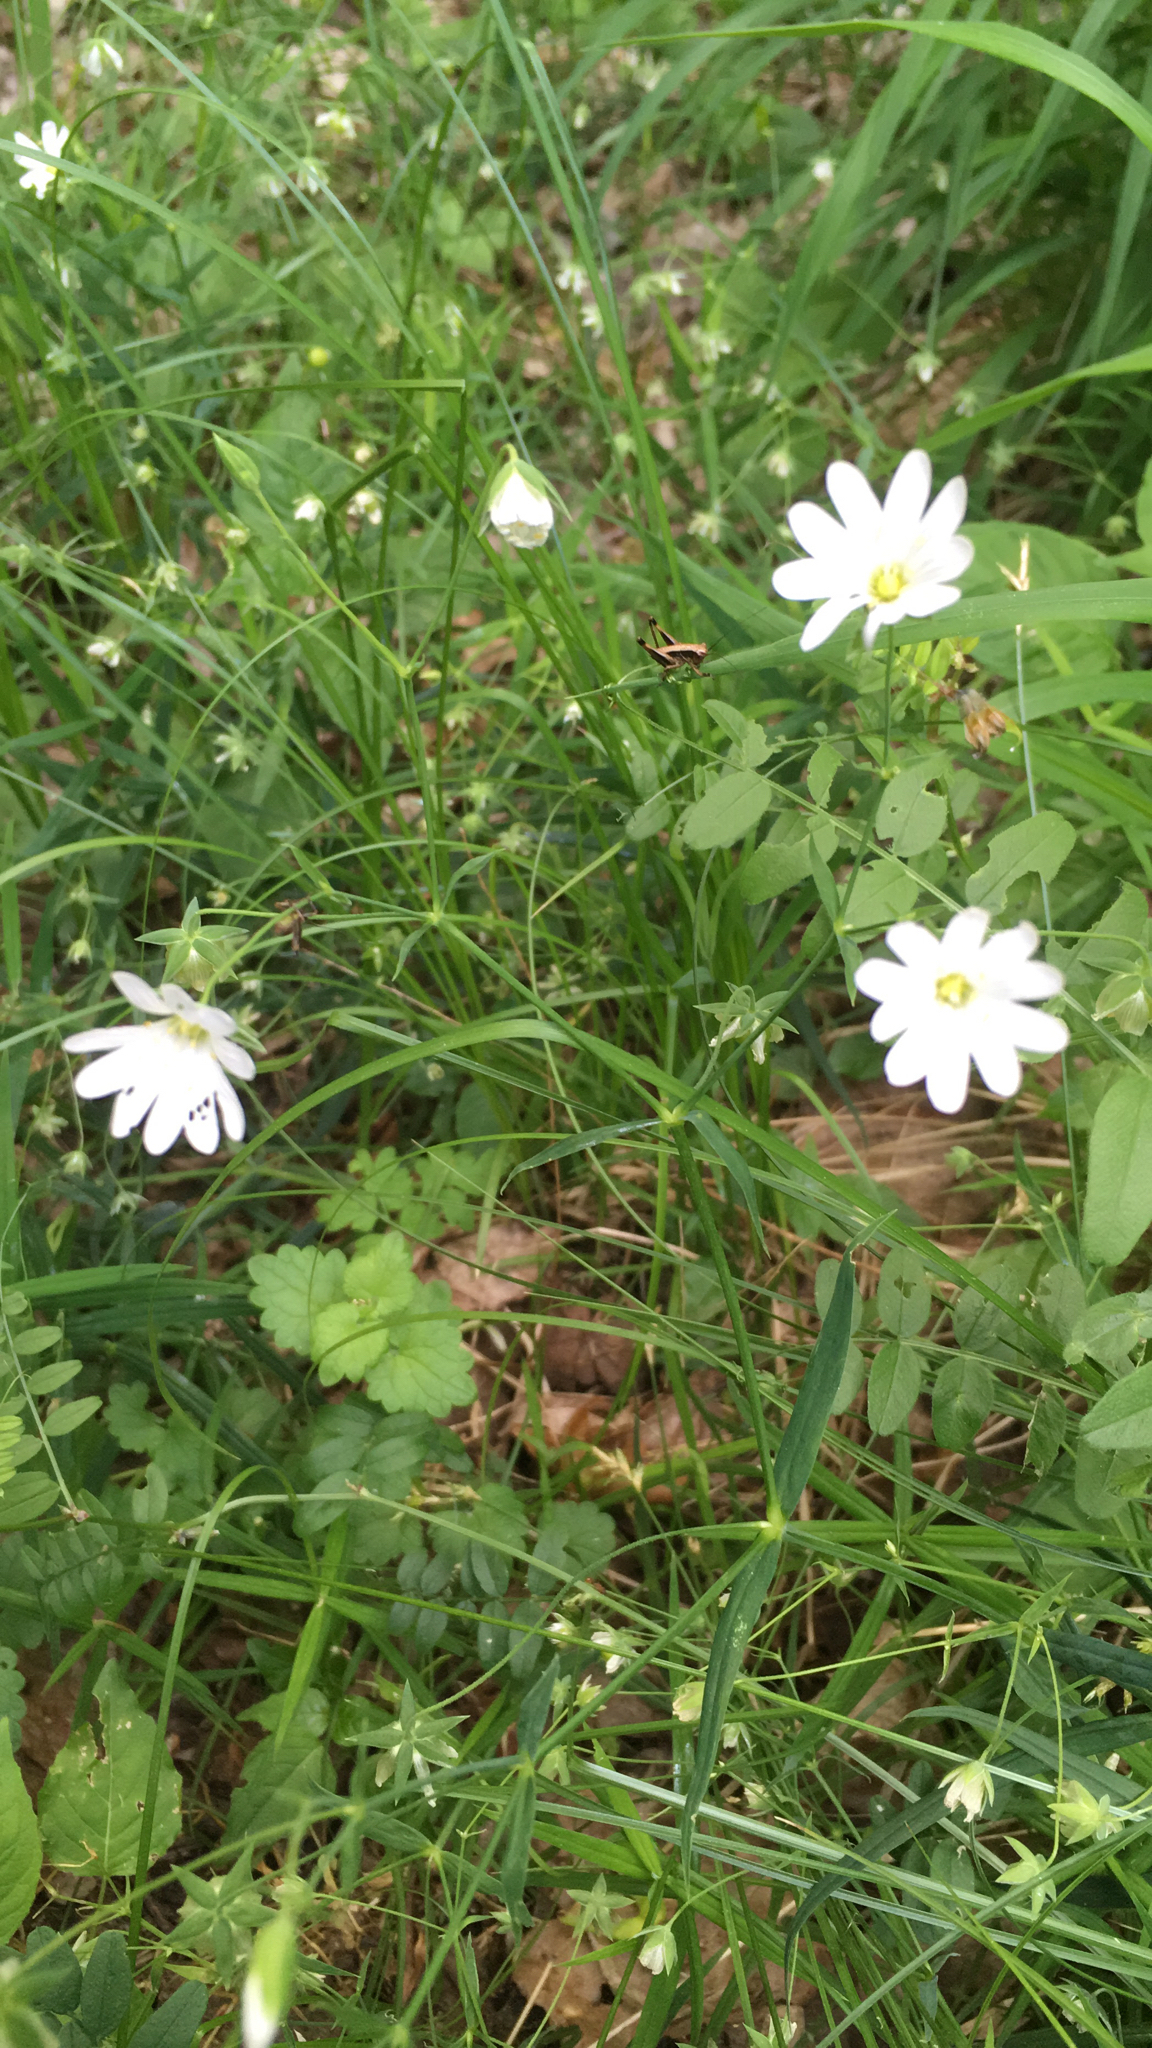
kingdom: Plantae
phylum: Tracheophyta
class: Magnoliopsida
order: Caryophyllales
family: Caryophyllaceae
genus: Rabelera
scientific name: Rabelera holostea
